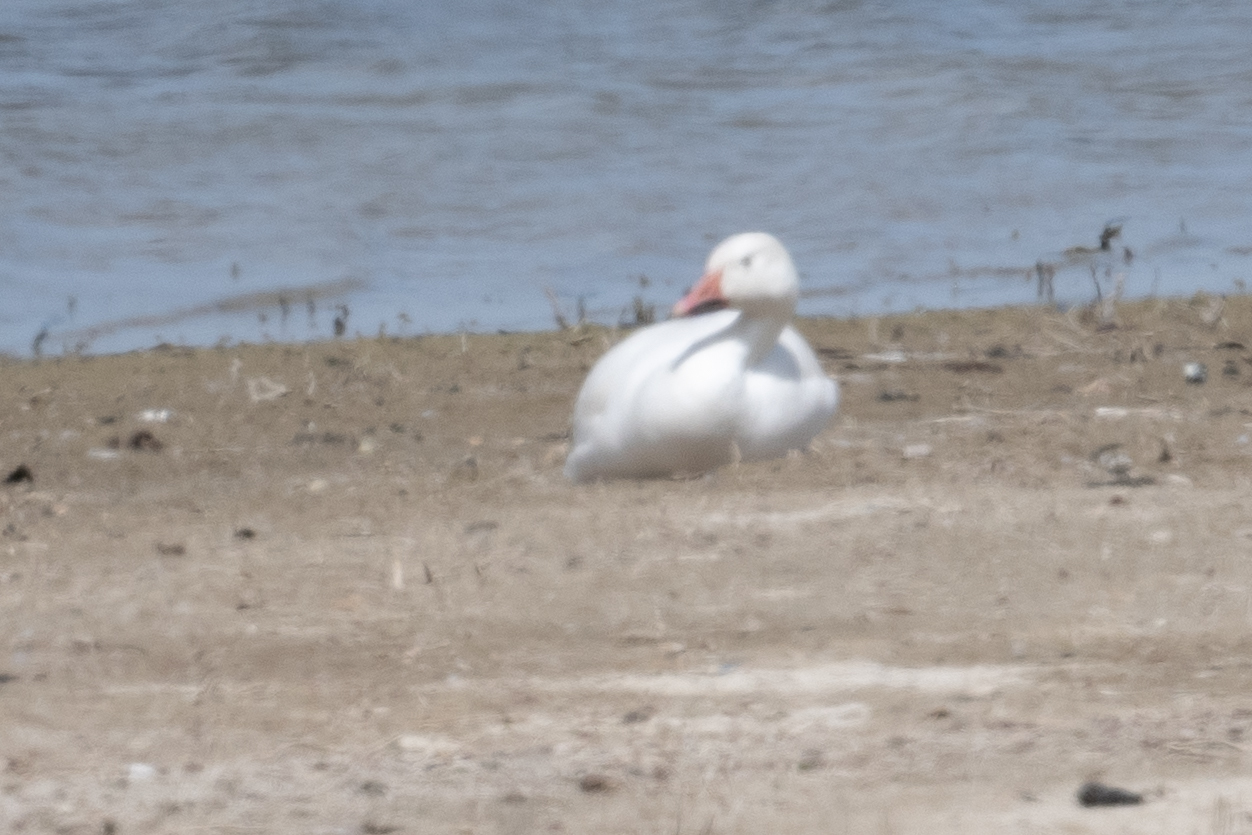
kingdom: Animalia
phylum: Chordata
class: Aves
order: Anseriformes
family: Anatidae
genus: Anser
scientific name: Anser caerulescens
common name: Snow goose
